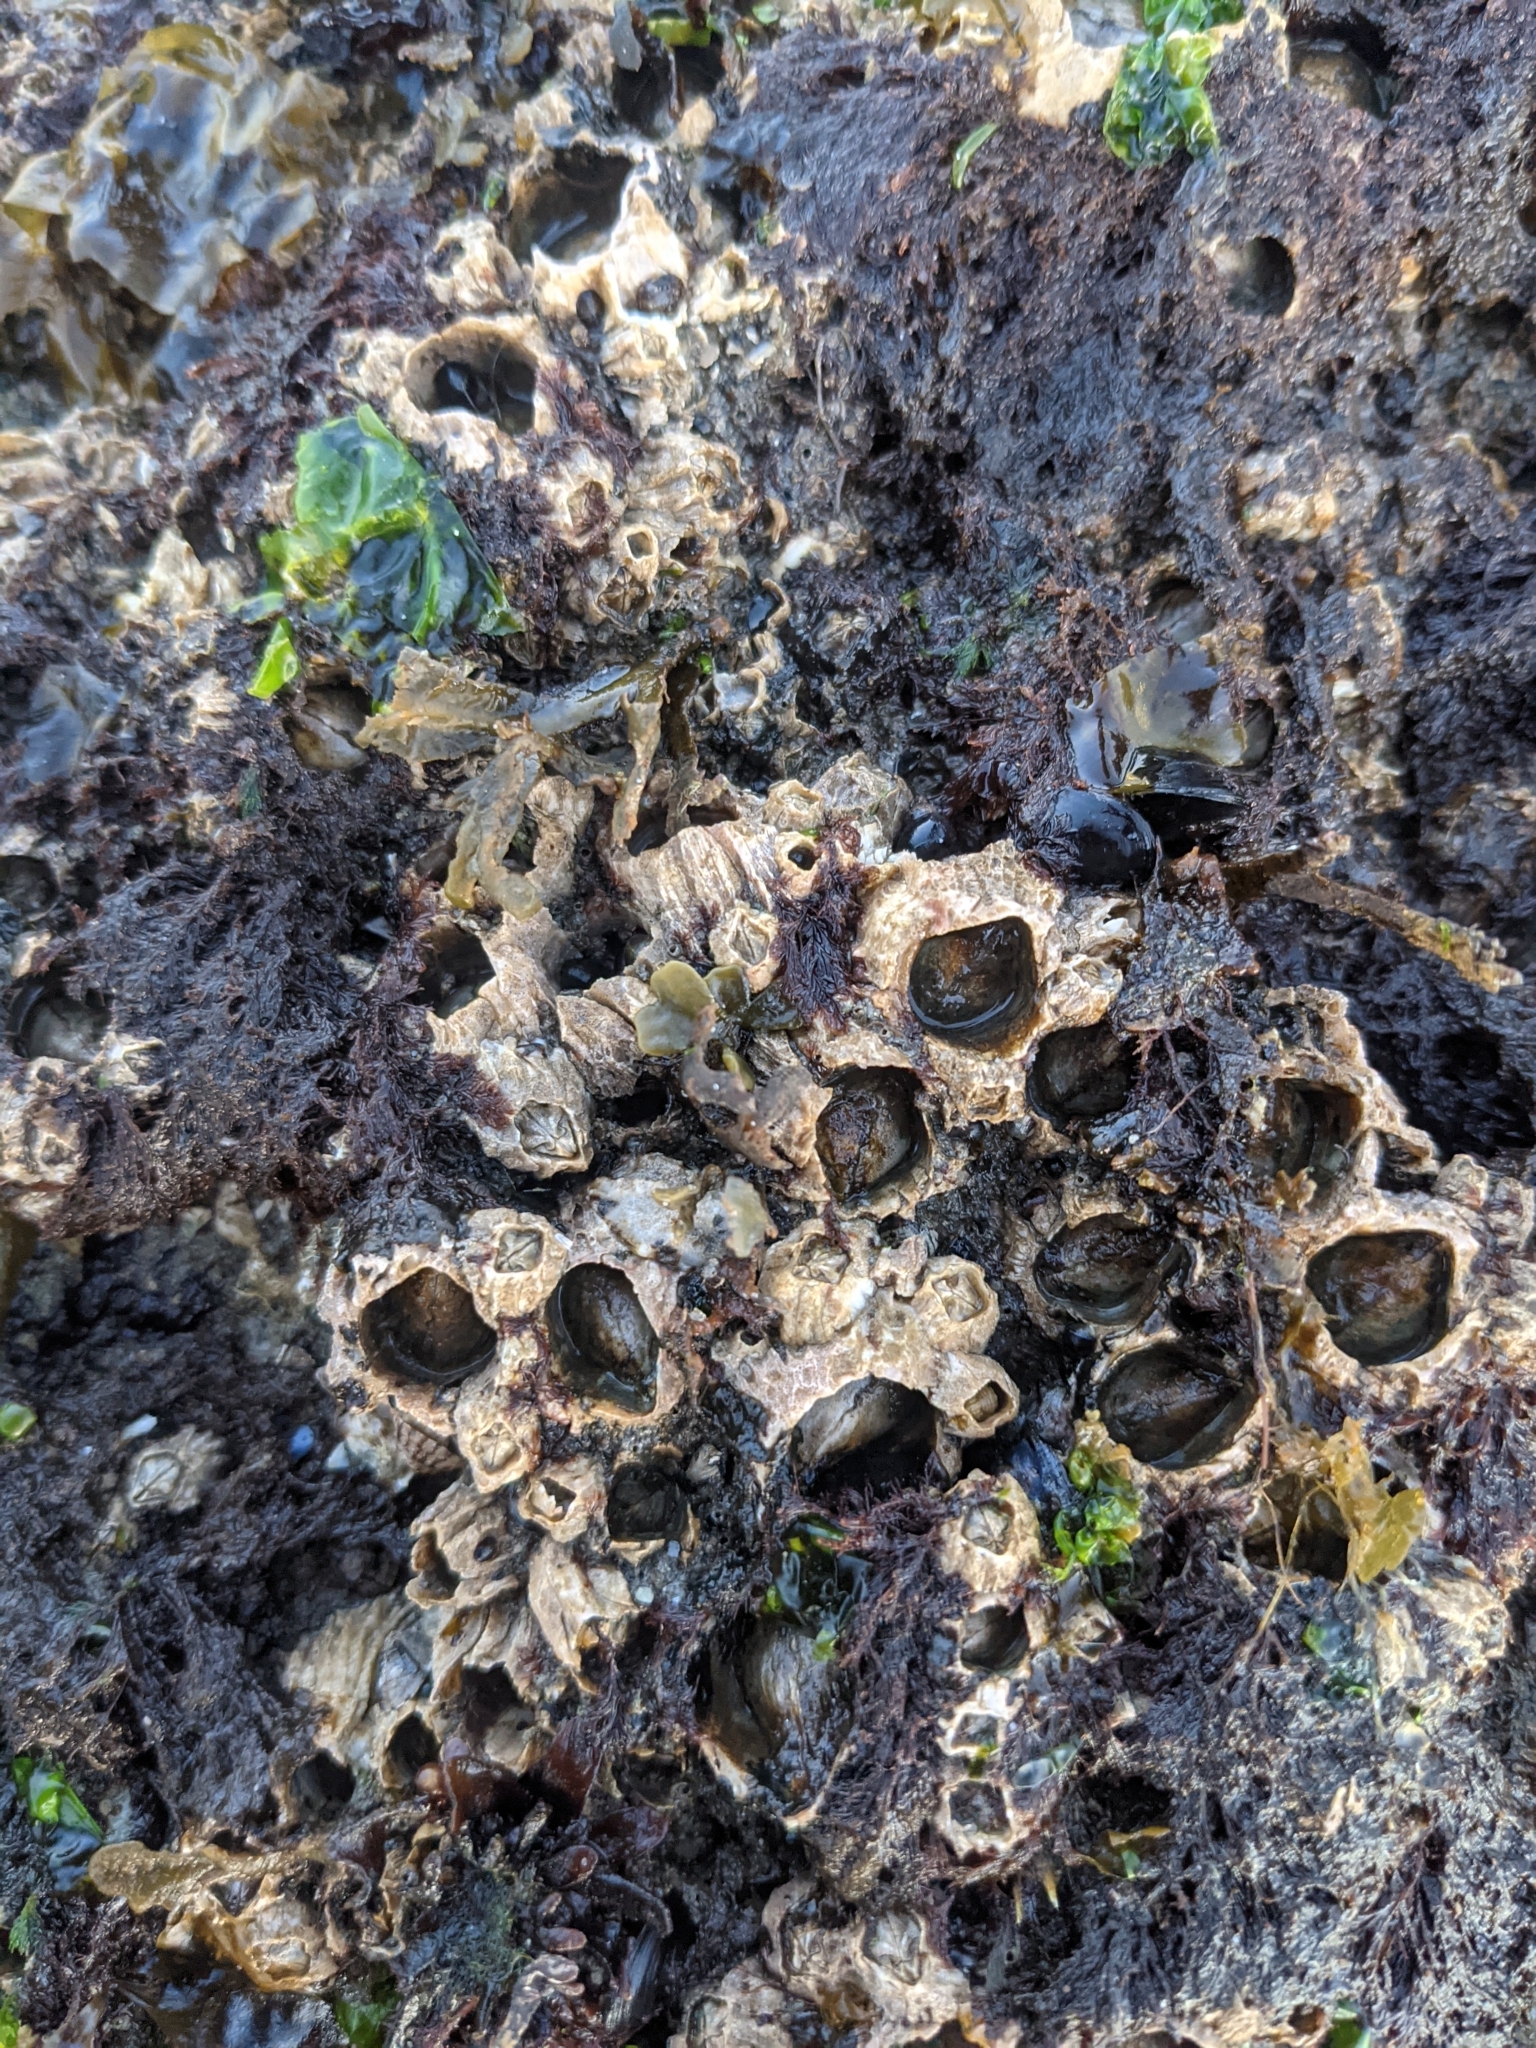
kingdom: Animalia
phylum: Arthropoda
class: Maxillopoda
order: Sessilia
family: Archaeobalanidae
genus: Semibalanus
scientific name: Semibalanus cariosus
